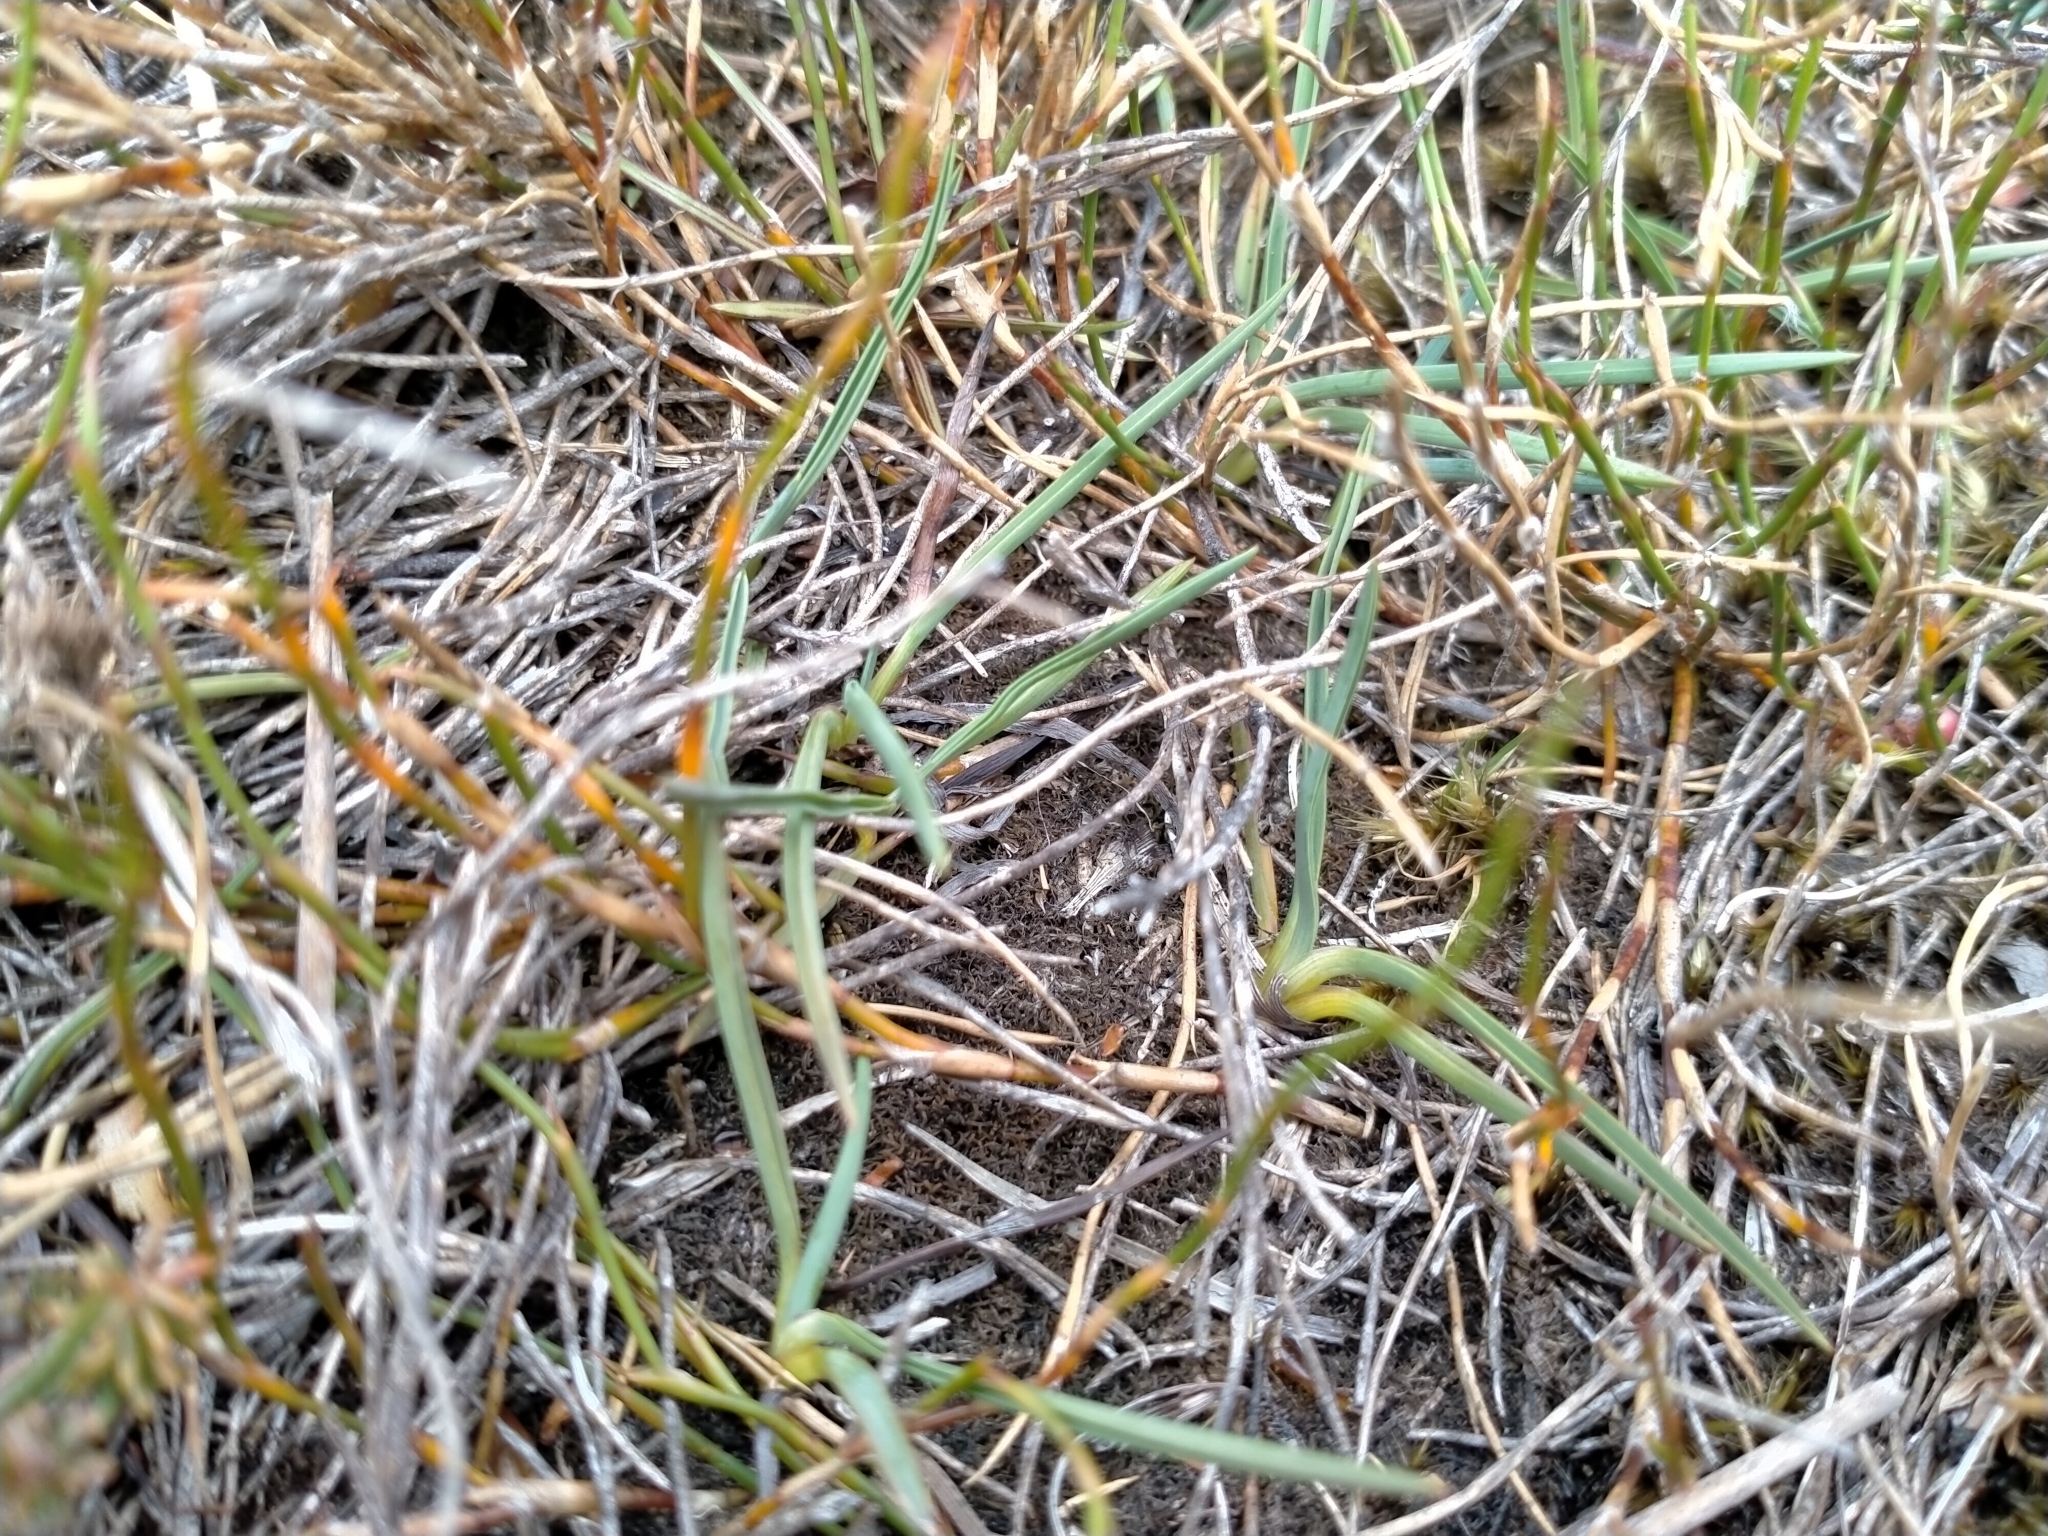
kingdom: Plantae
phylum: Tracheophyta
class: Liliopsida
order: Asparagales
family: Asphodelaceae
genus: Herpolirion
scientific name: Herpolirion novae-zelandiae
